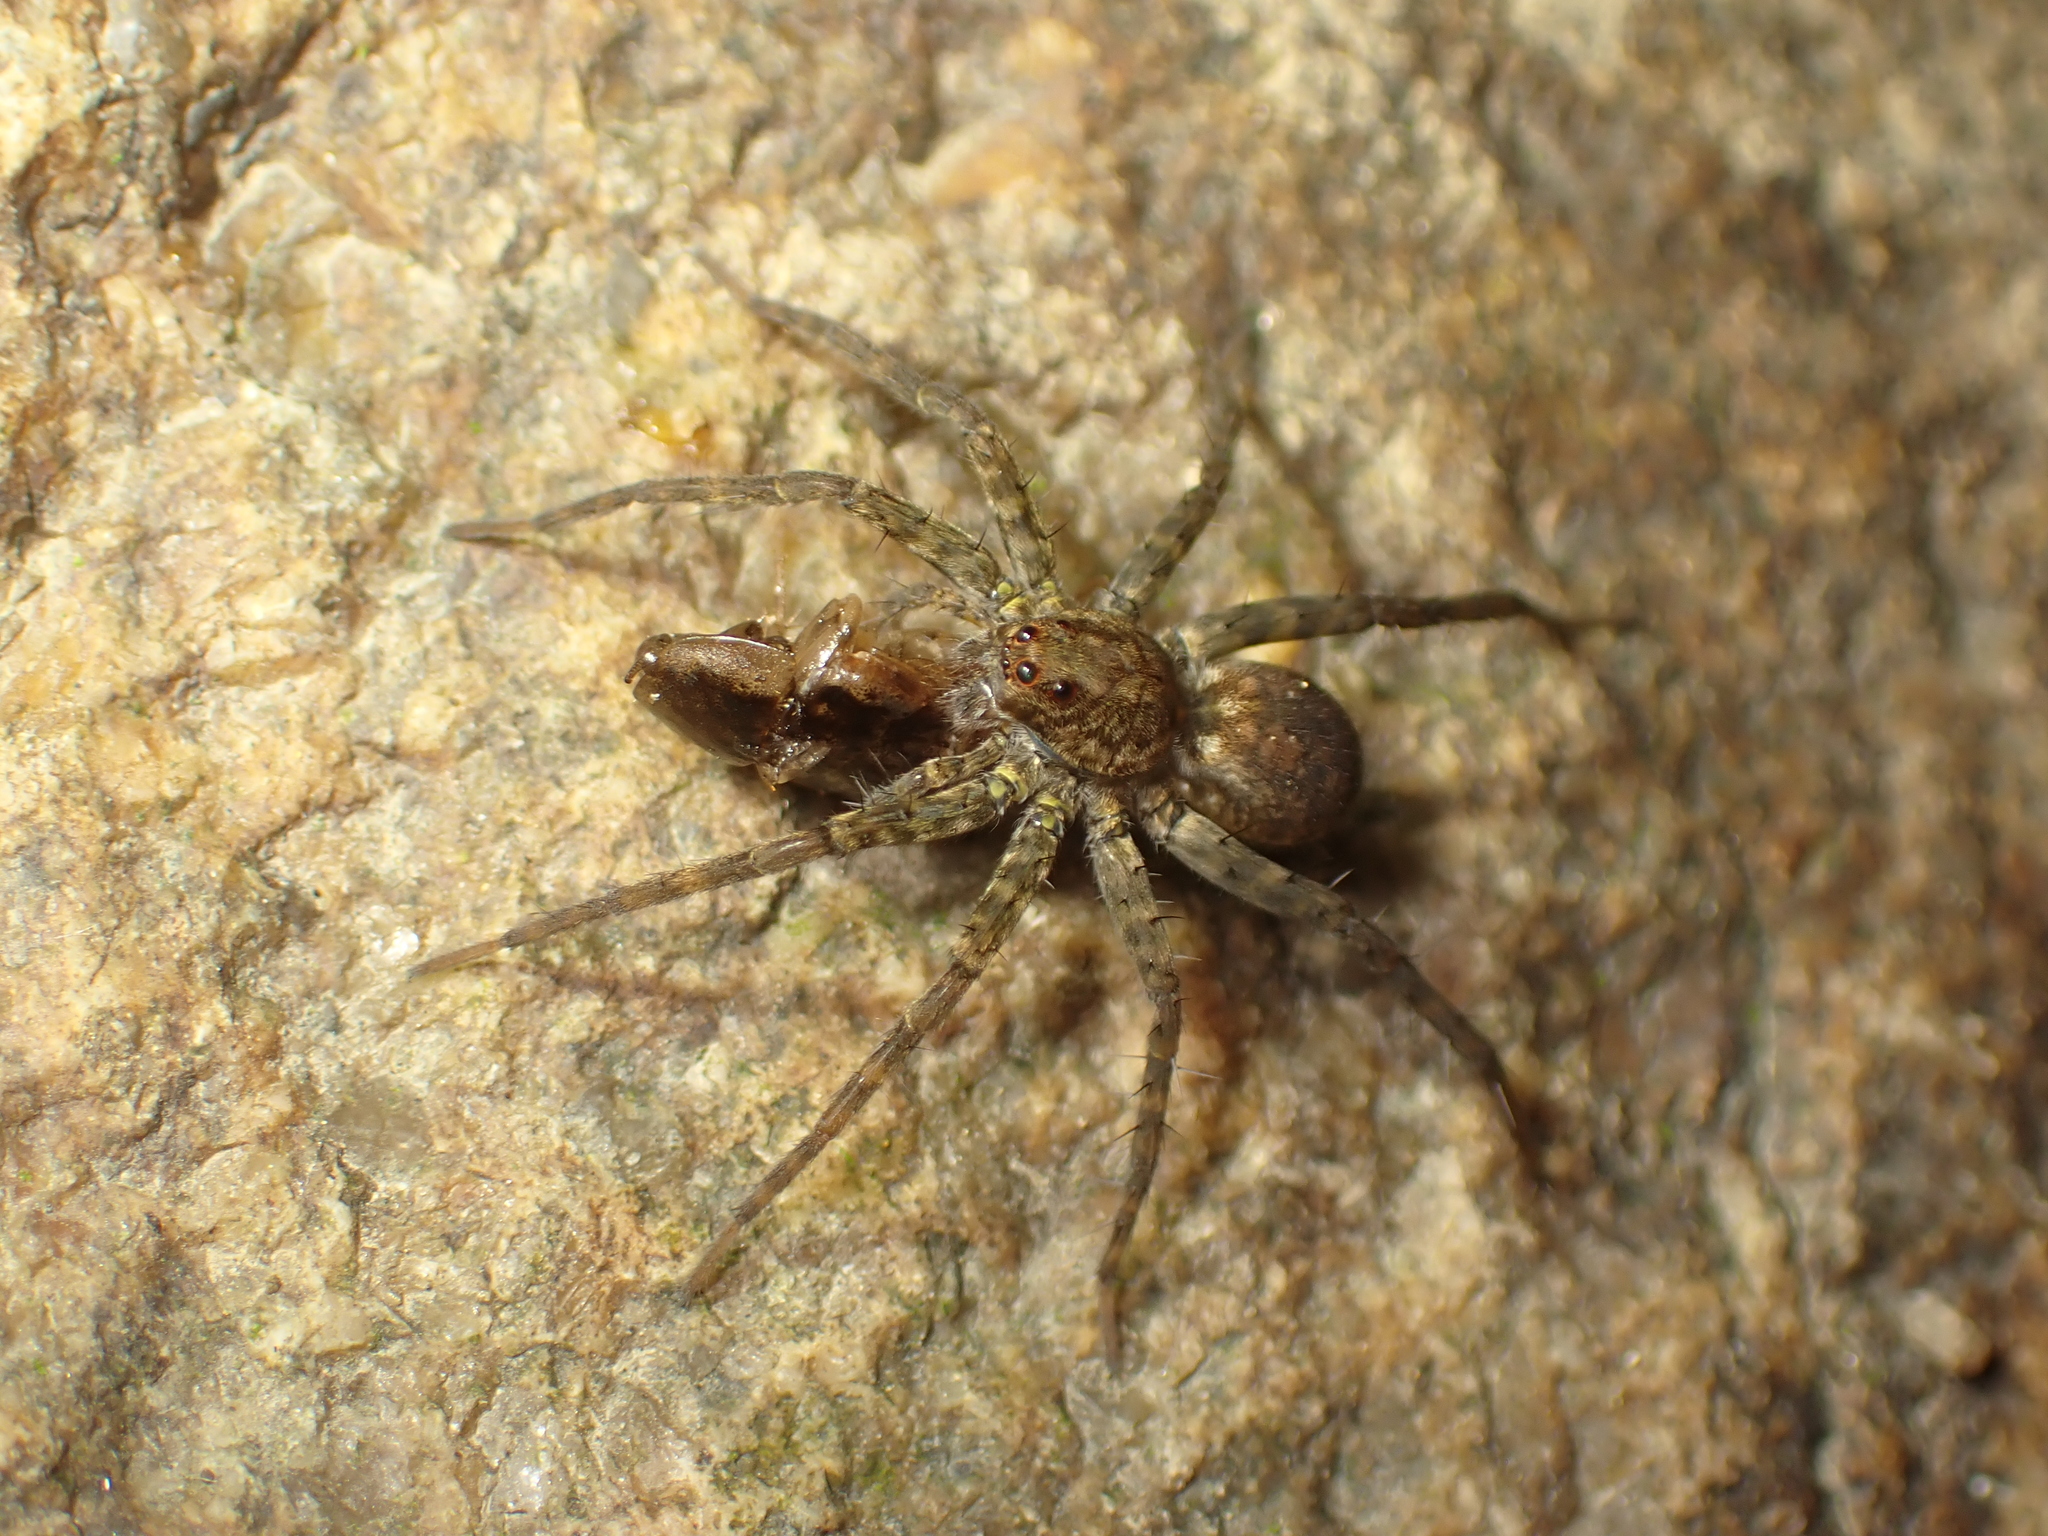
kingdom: Animalia
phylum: Arthropoda
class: Arachnida
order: Araneae
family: Lycosidae
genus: Pardosa
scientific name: Pardosa sumatrana
